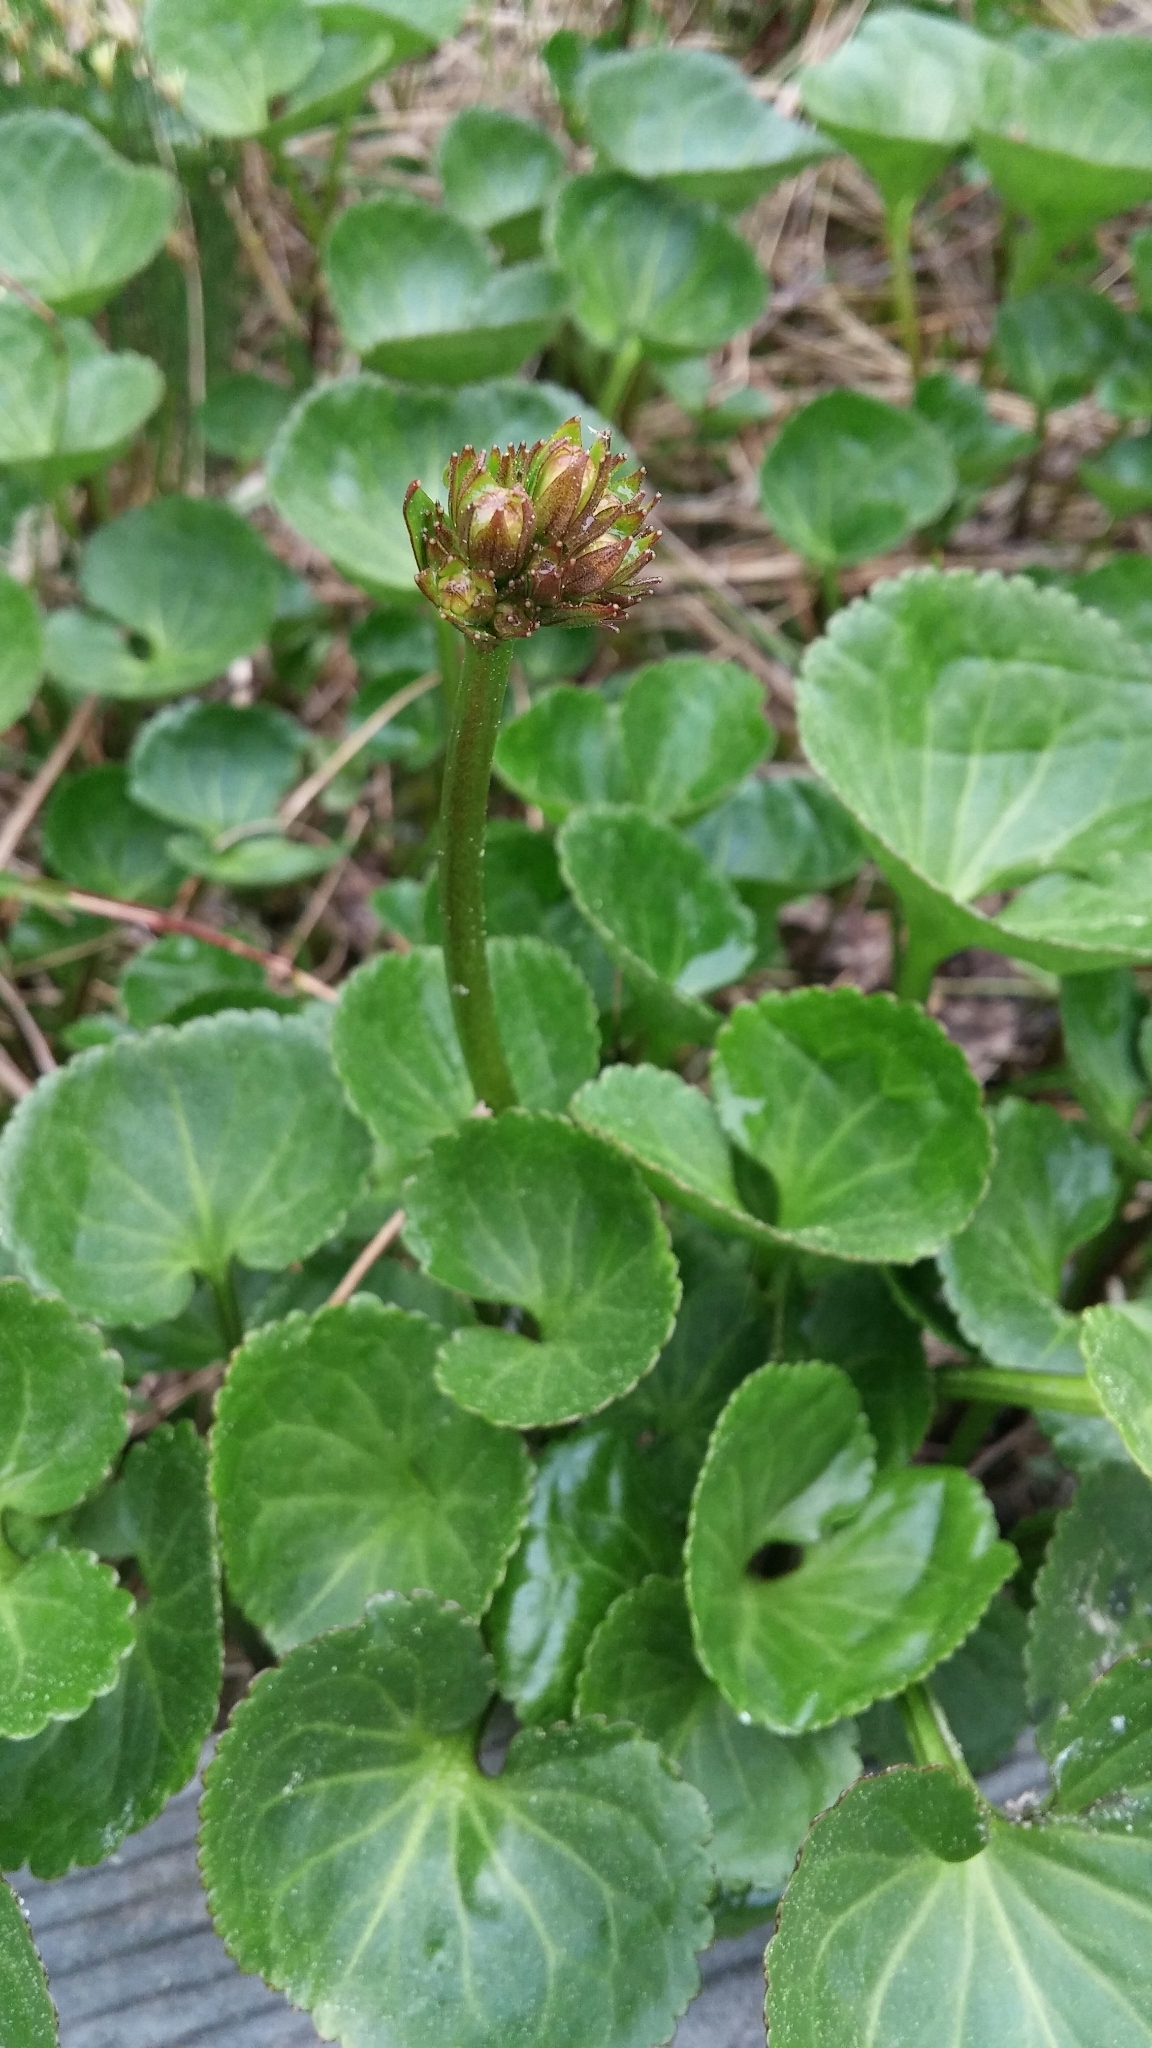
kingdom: Plantae
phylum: Tracheophyta
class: Magnoliopsida
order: Asterales
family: Menyanthaceae
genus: Nephrophyllidium
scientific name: Nephrophyllidium crista-galli
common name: Deer-cabbage
